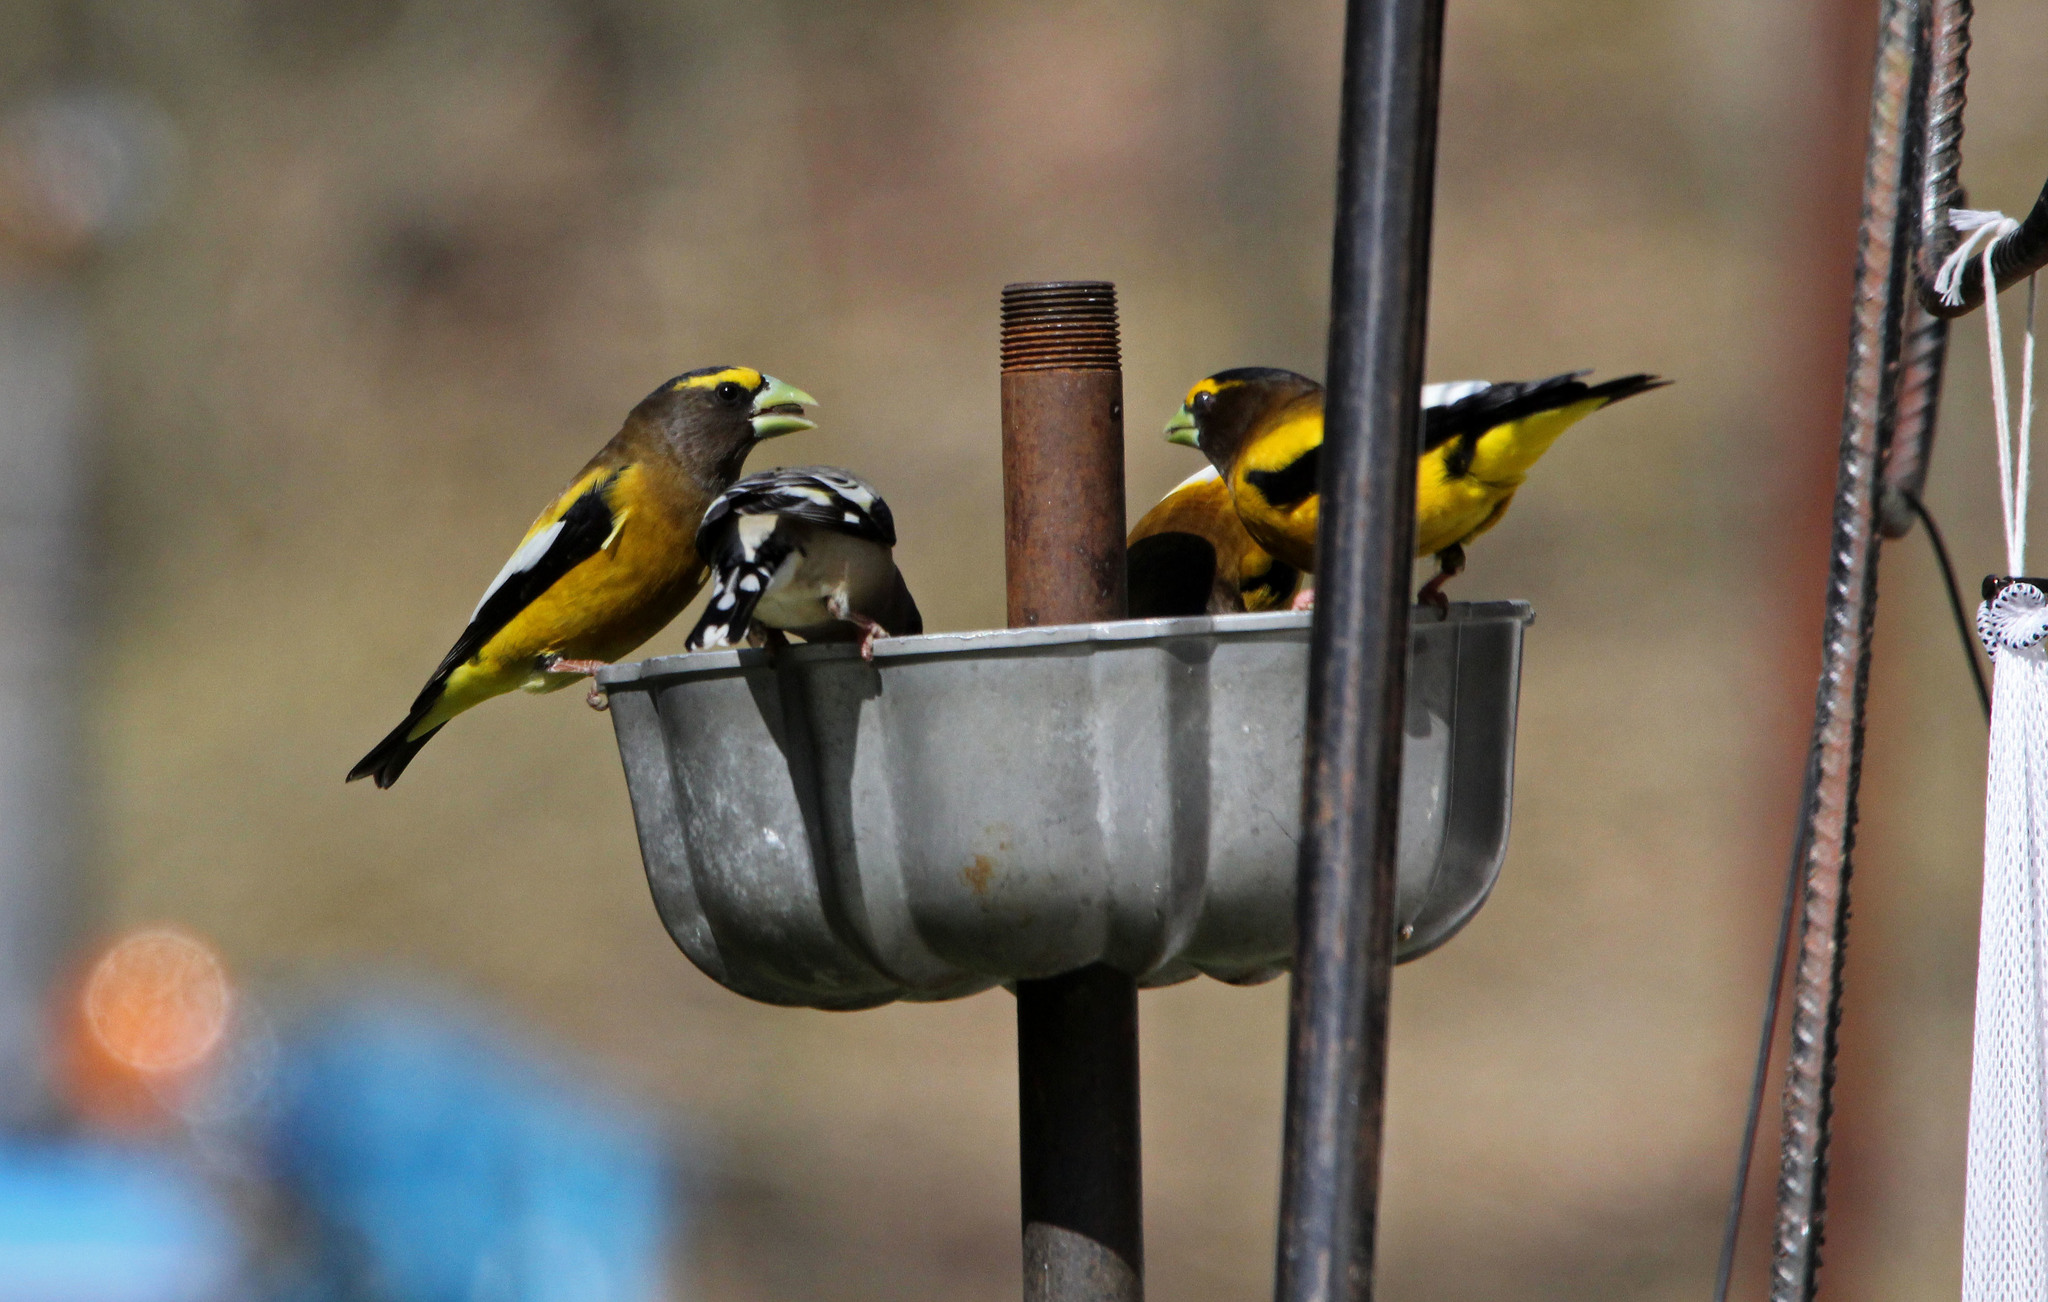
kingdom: Animalia
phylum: Chordata
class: Aves
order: Passeriformes
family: Fringillidae
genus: Hesperiphona
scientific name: Hesperiphona vespertina
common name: Evening grosbeak
